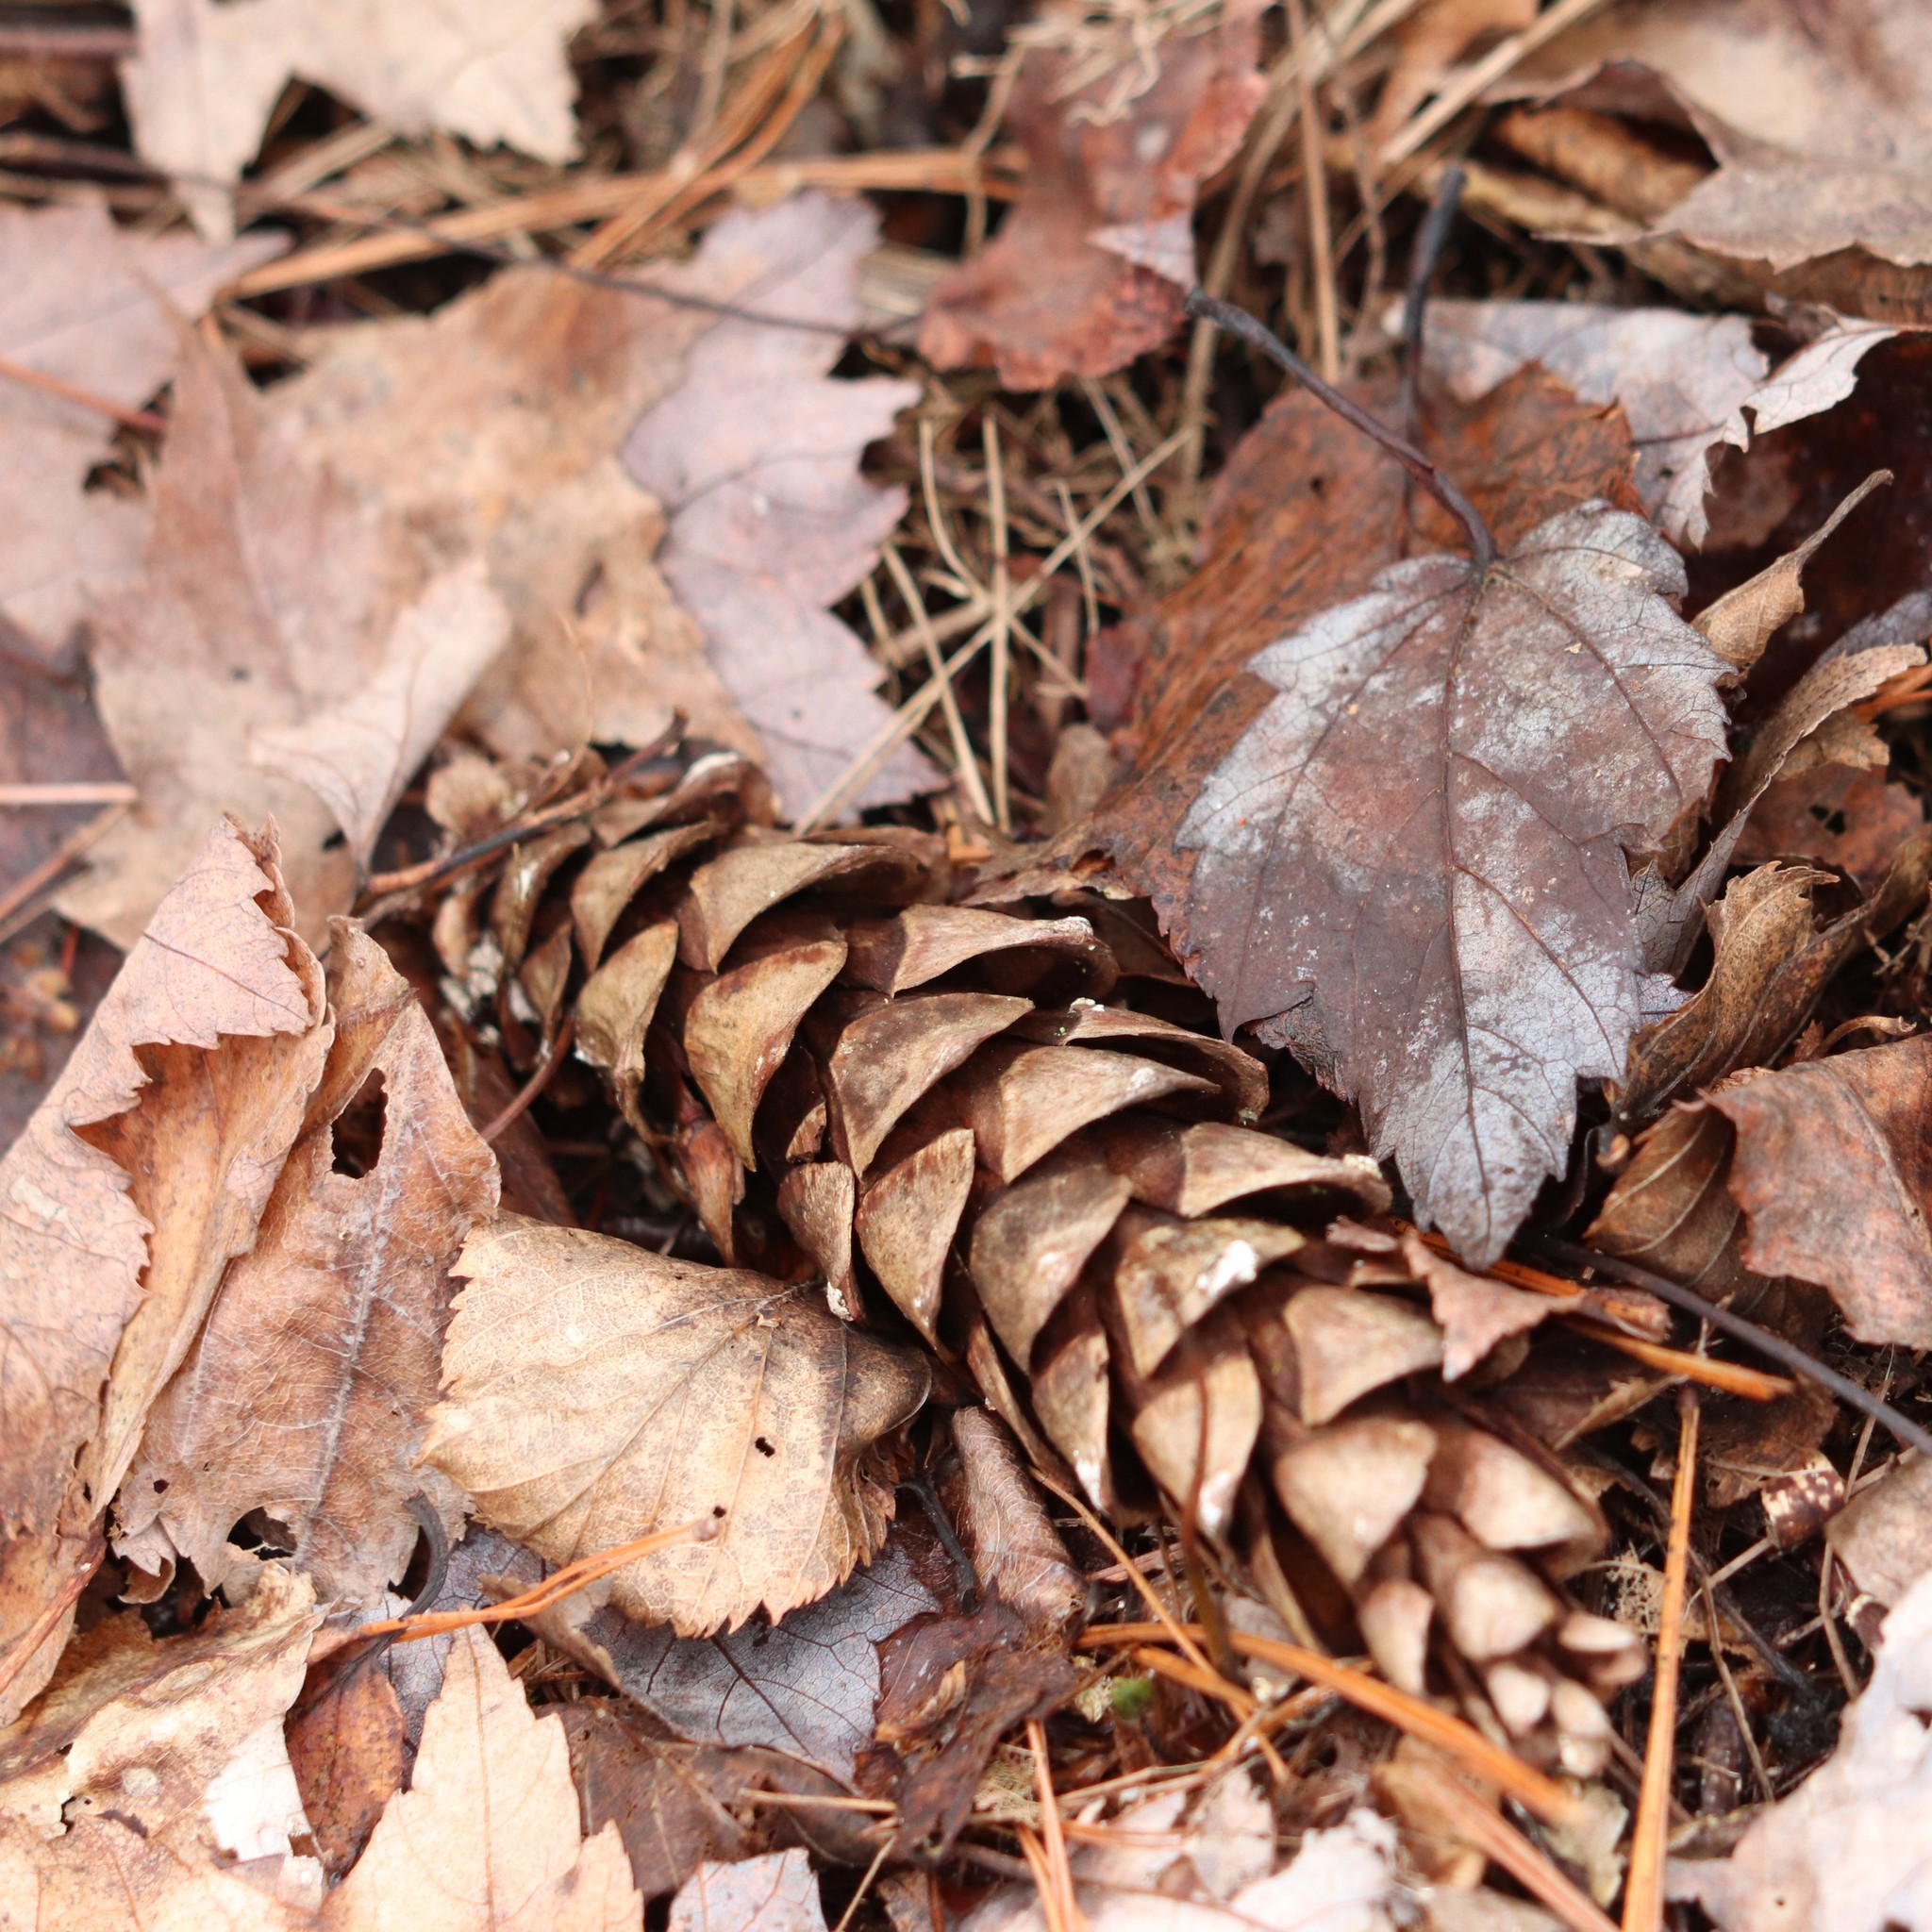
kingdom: Plantae
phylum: Tracheophyta
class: Pinopsida
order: Pinales
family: Pinaceae
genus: Pinus
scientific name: Pinus strobus
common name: Weymouth pine
